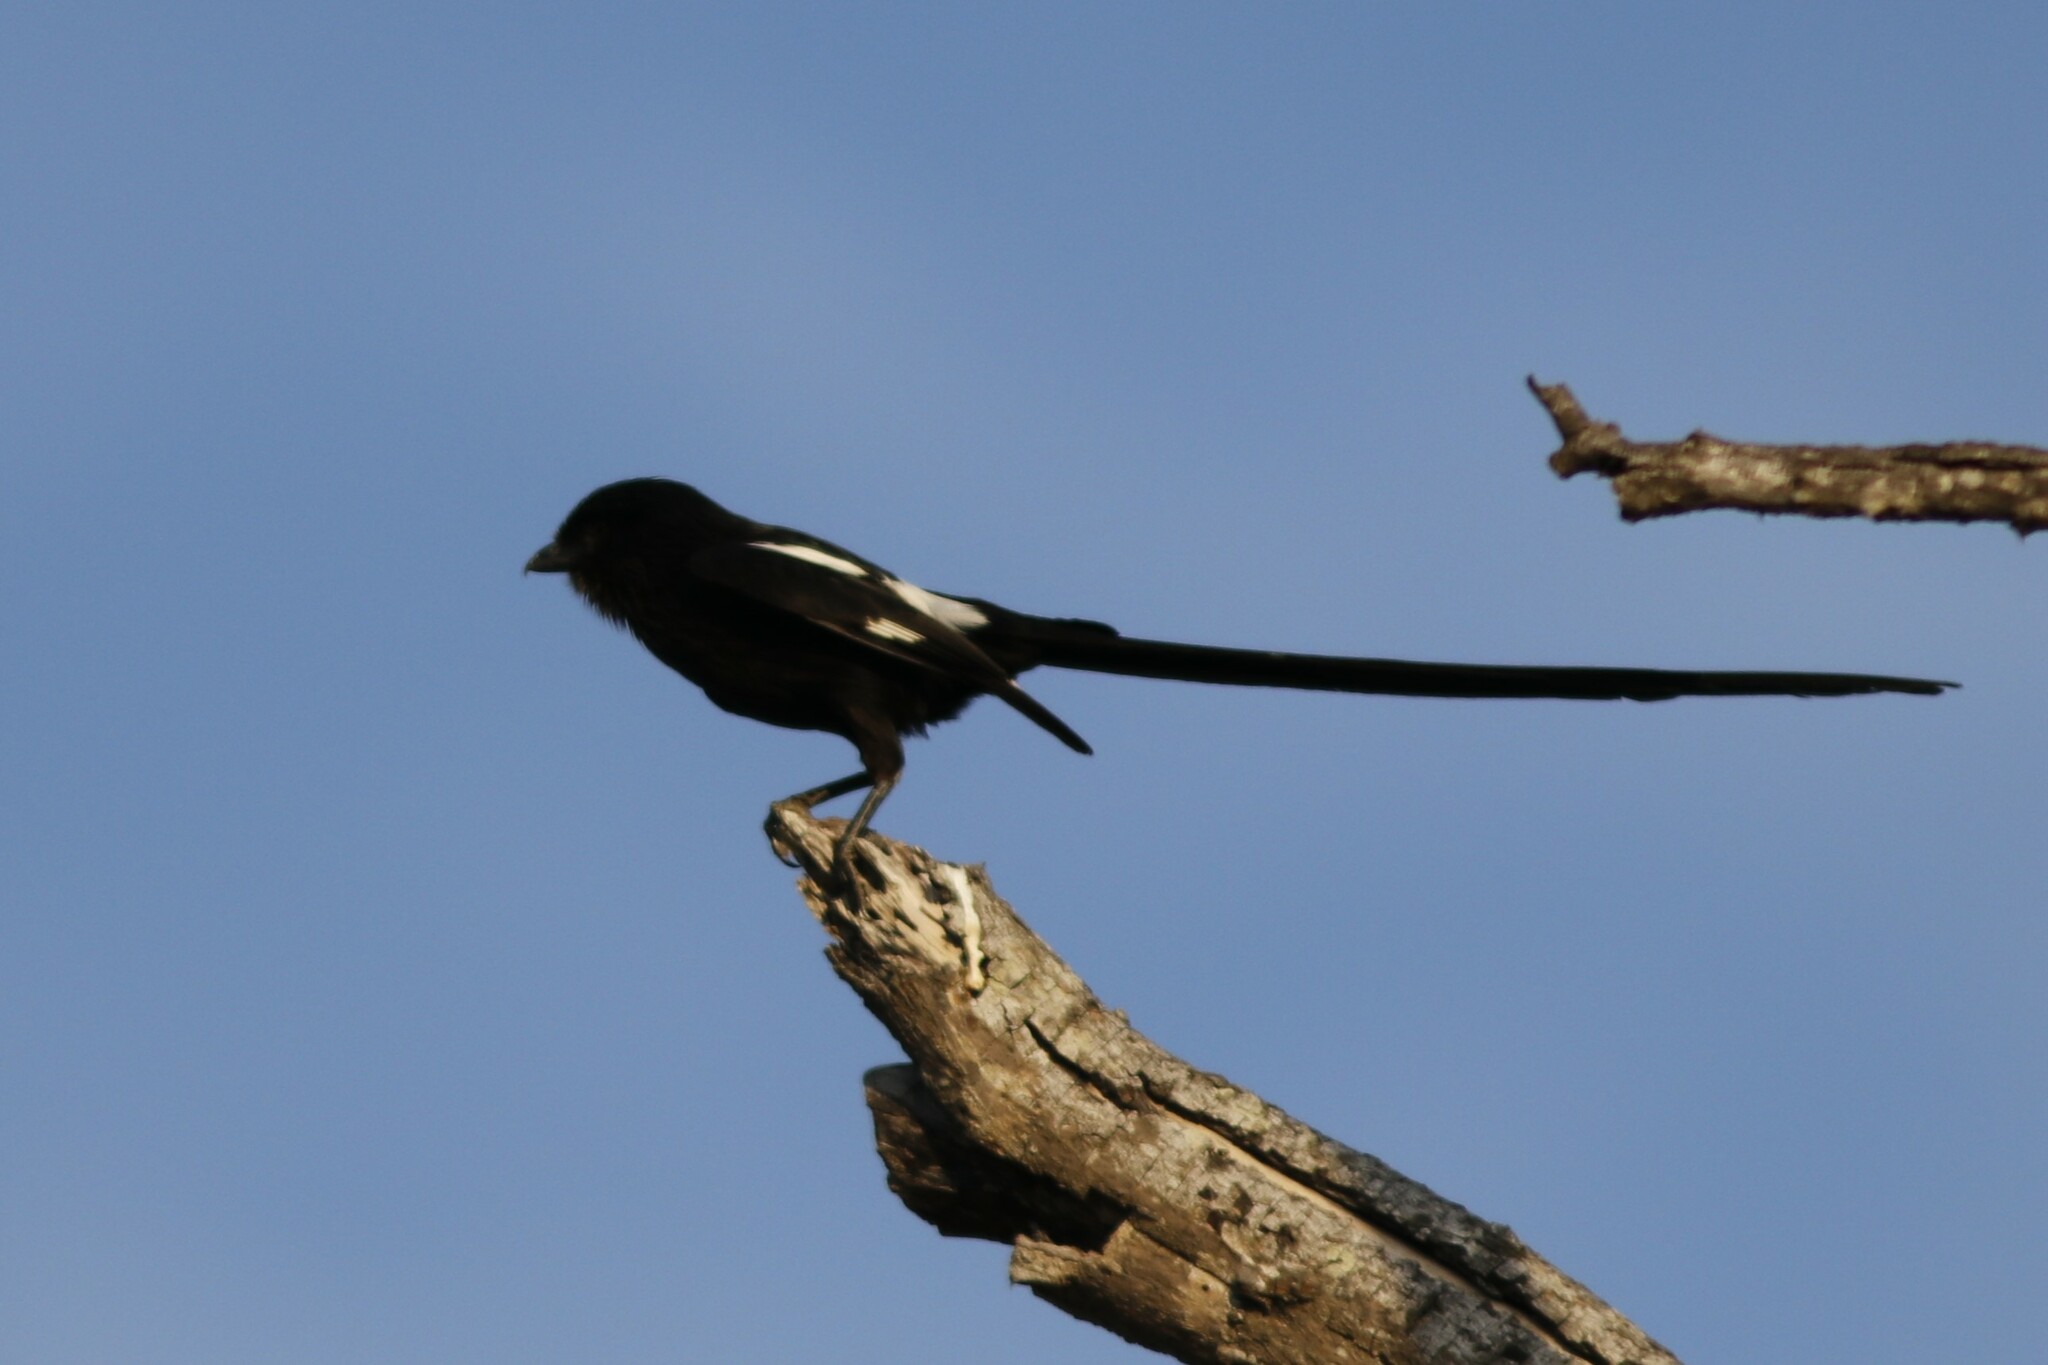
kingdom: Animalia
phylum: Chordata
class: Aves
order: Passeriformes
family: Laniidae
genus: Urolestes
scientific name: Urolestes melanoleucus
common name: Magpie shrike
